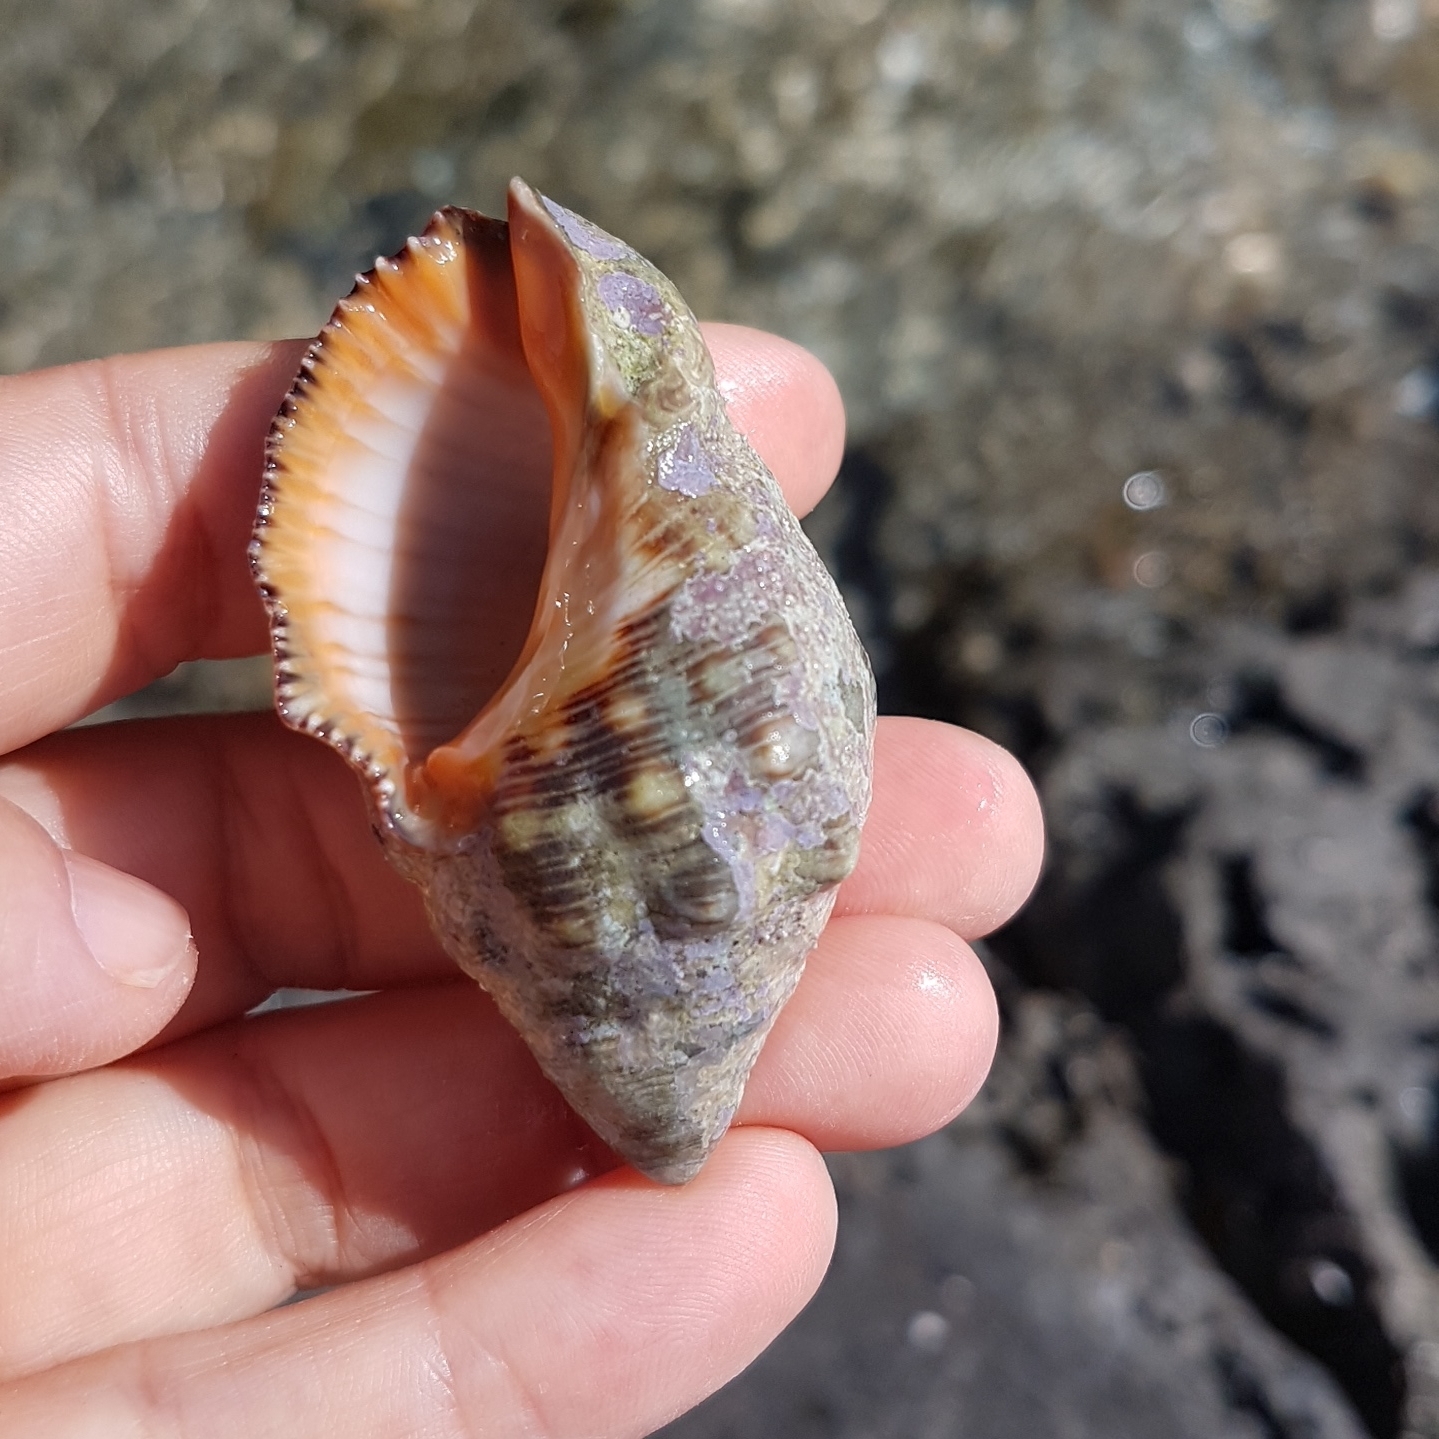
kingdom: Animalia
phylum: Mollusca
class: Gastropoda
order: Neogastropoda
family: Muricidae
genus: Stramonita
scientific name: Stramonita haemastoma
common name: Florida dog winkle
